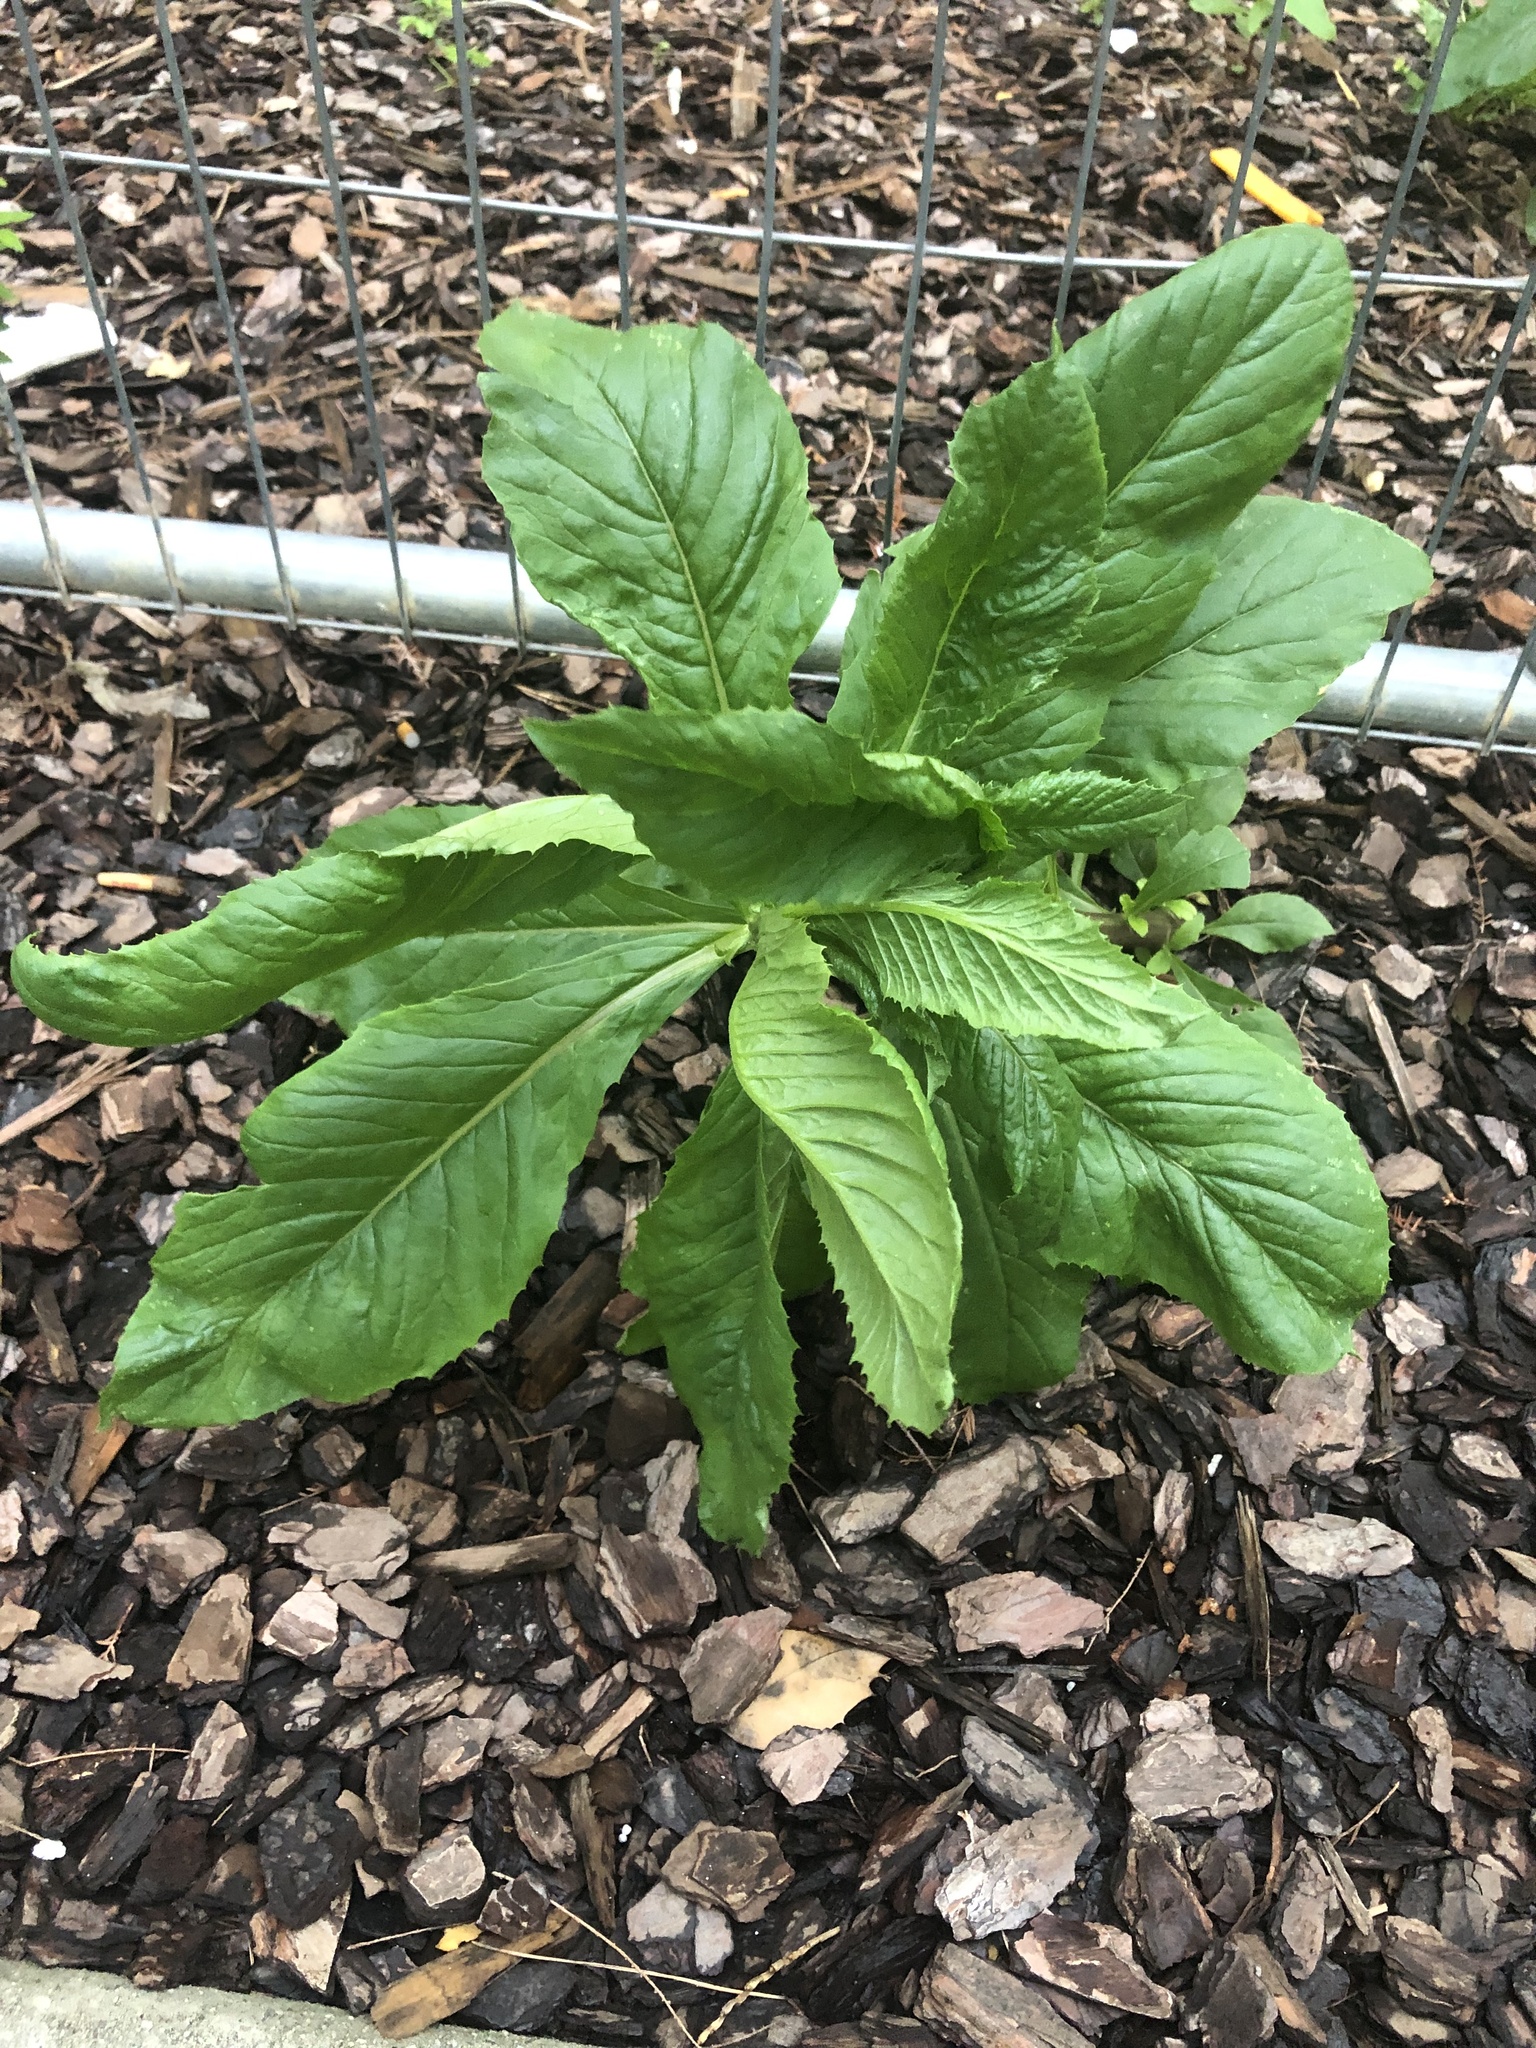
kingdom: Plantae
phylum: Tracheophyta
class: Magnoliopsida
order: Asterales
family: Asteraceae
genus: Erechtites
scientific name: Erechtites hieraciifolius
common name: American burnweed
